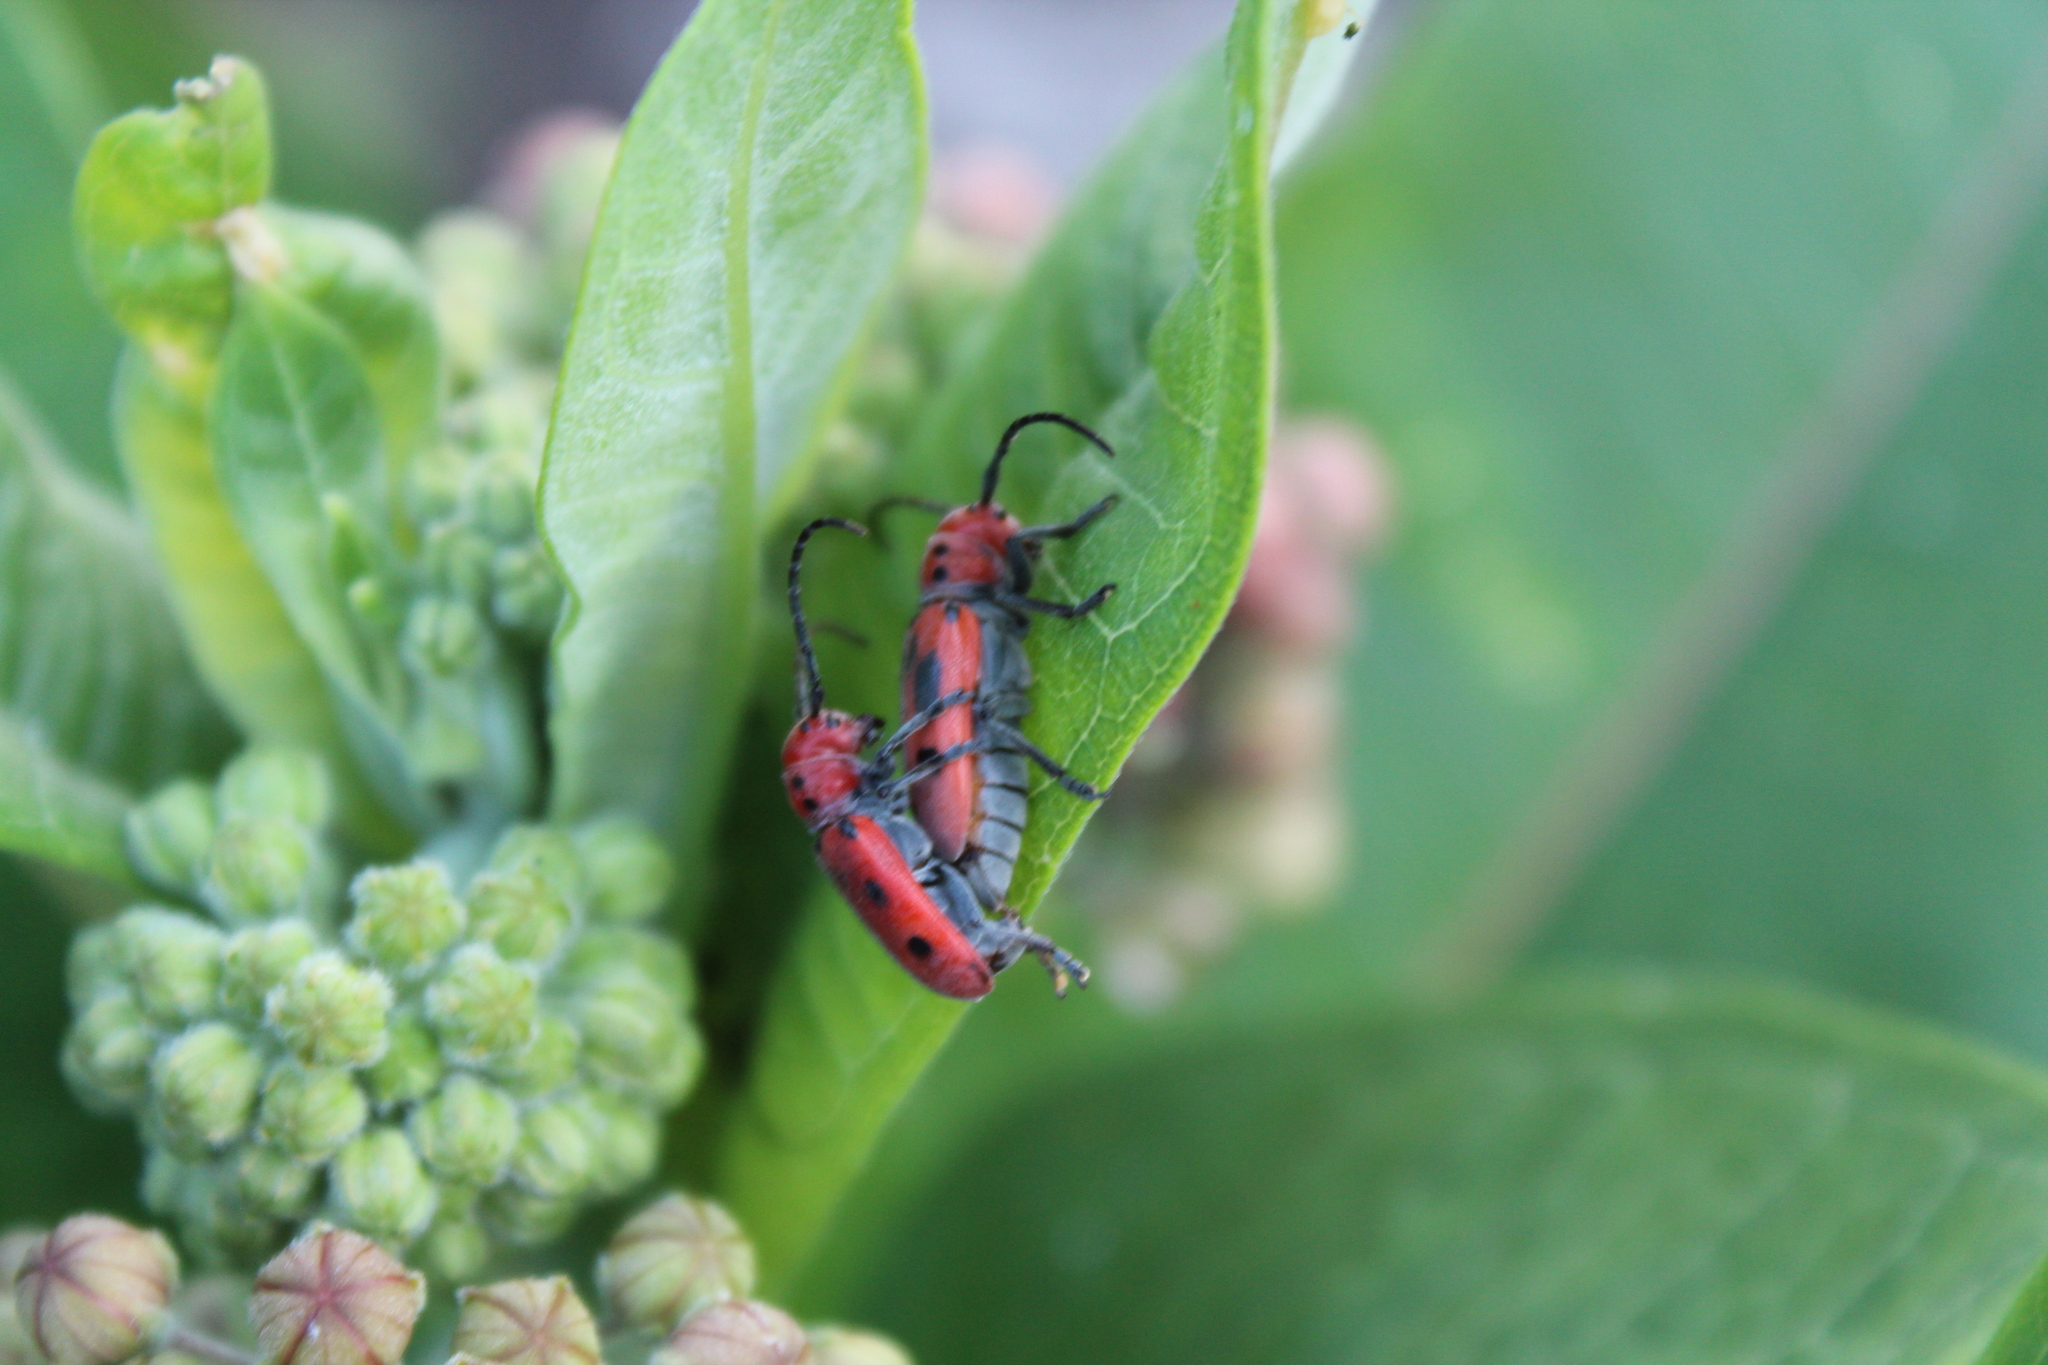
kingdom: Animalia
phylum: Arthropoda
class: Insecta
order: Coleoptera
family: Cerambycidae
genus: Tetraopes
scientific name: Tetraopes tetrophthalmus
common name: Red milkweed beetle
